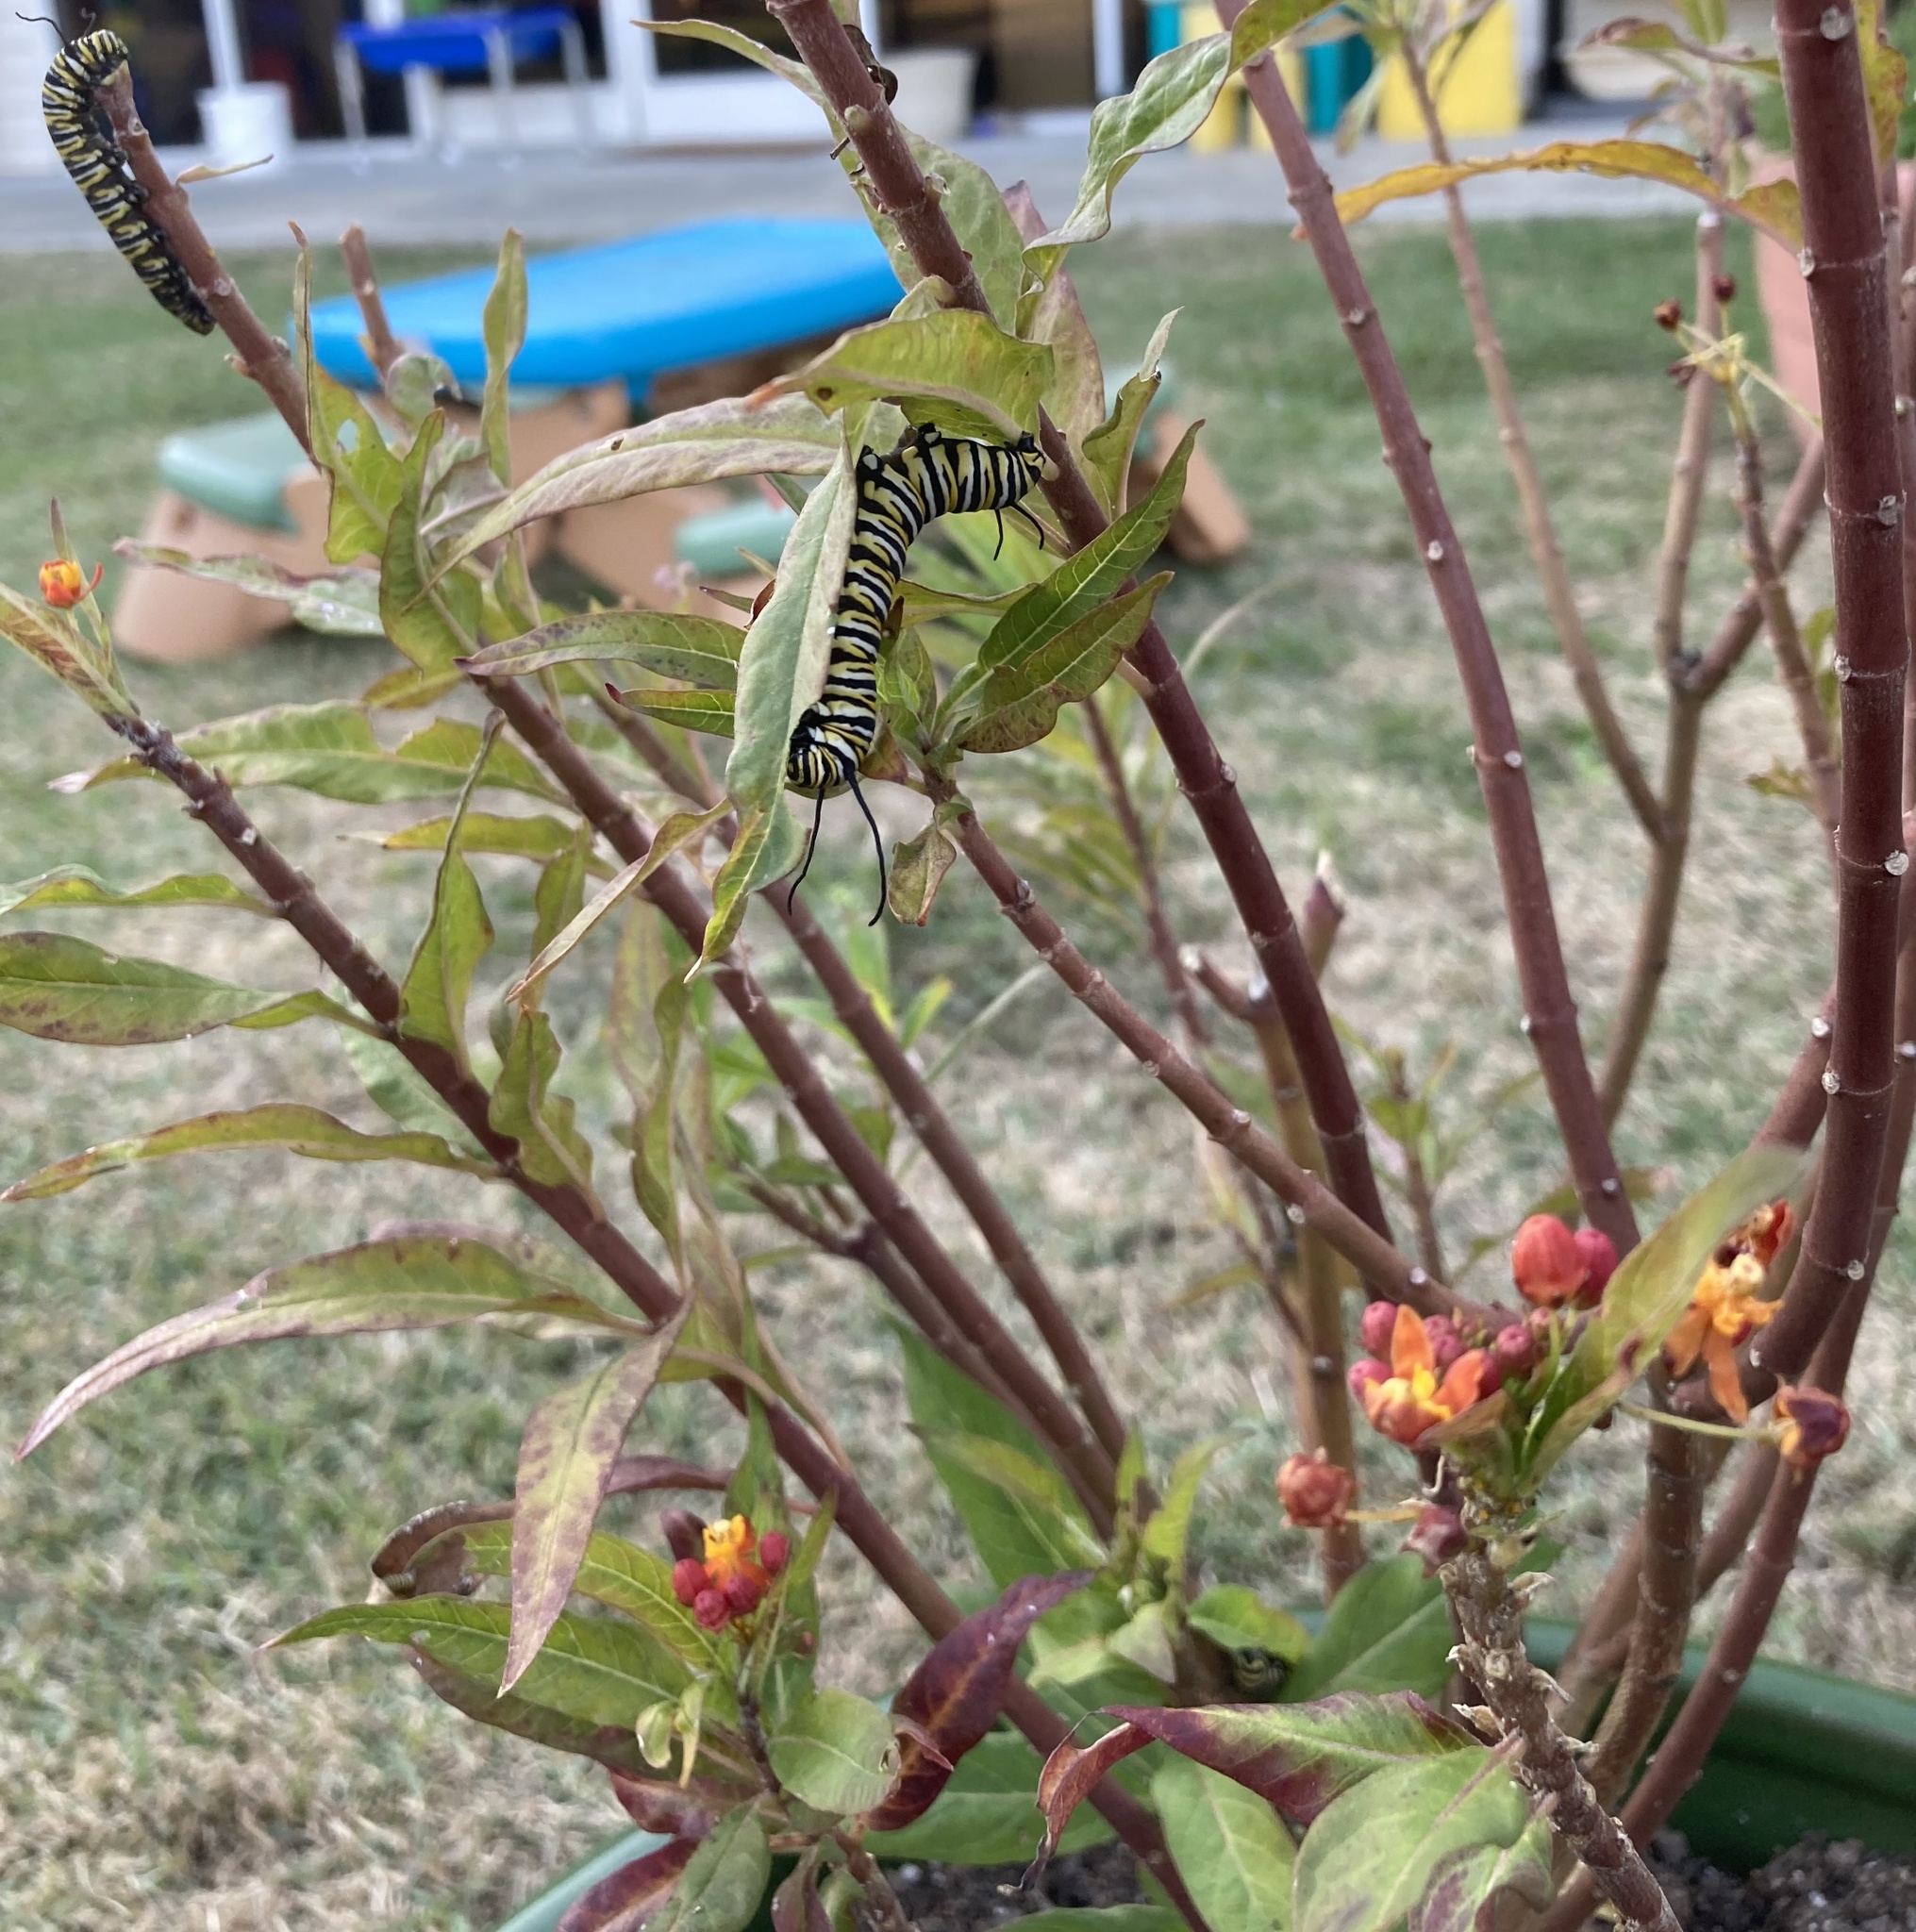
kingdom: Animalia
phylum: Arthropoda
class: Insecta
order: Lepidoptera
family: Nymphalidae
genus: Danaus
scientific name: Danaus plexippus
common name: Monarch
